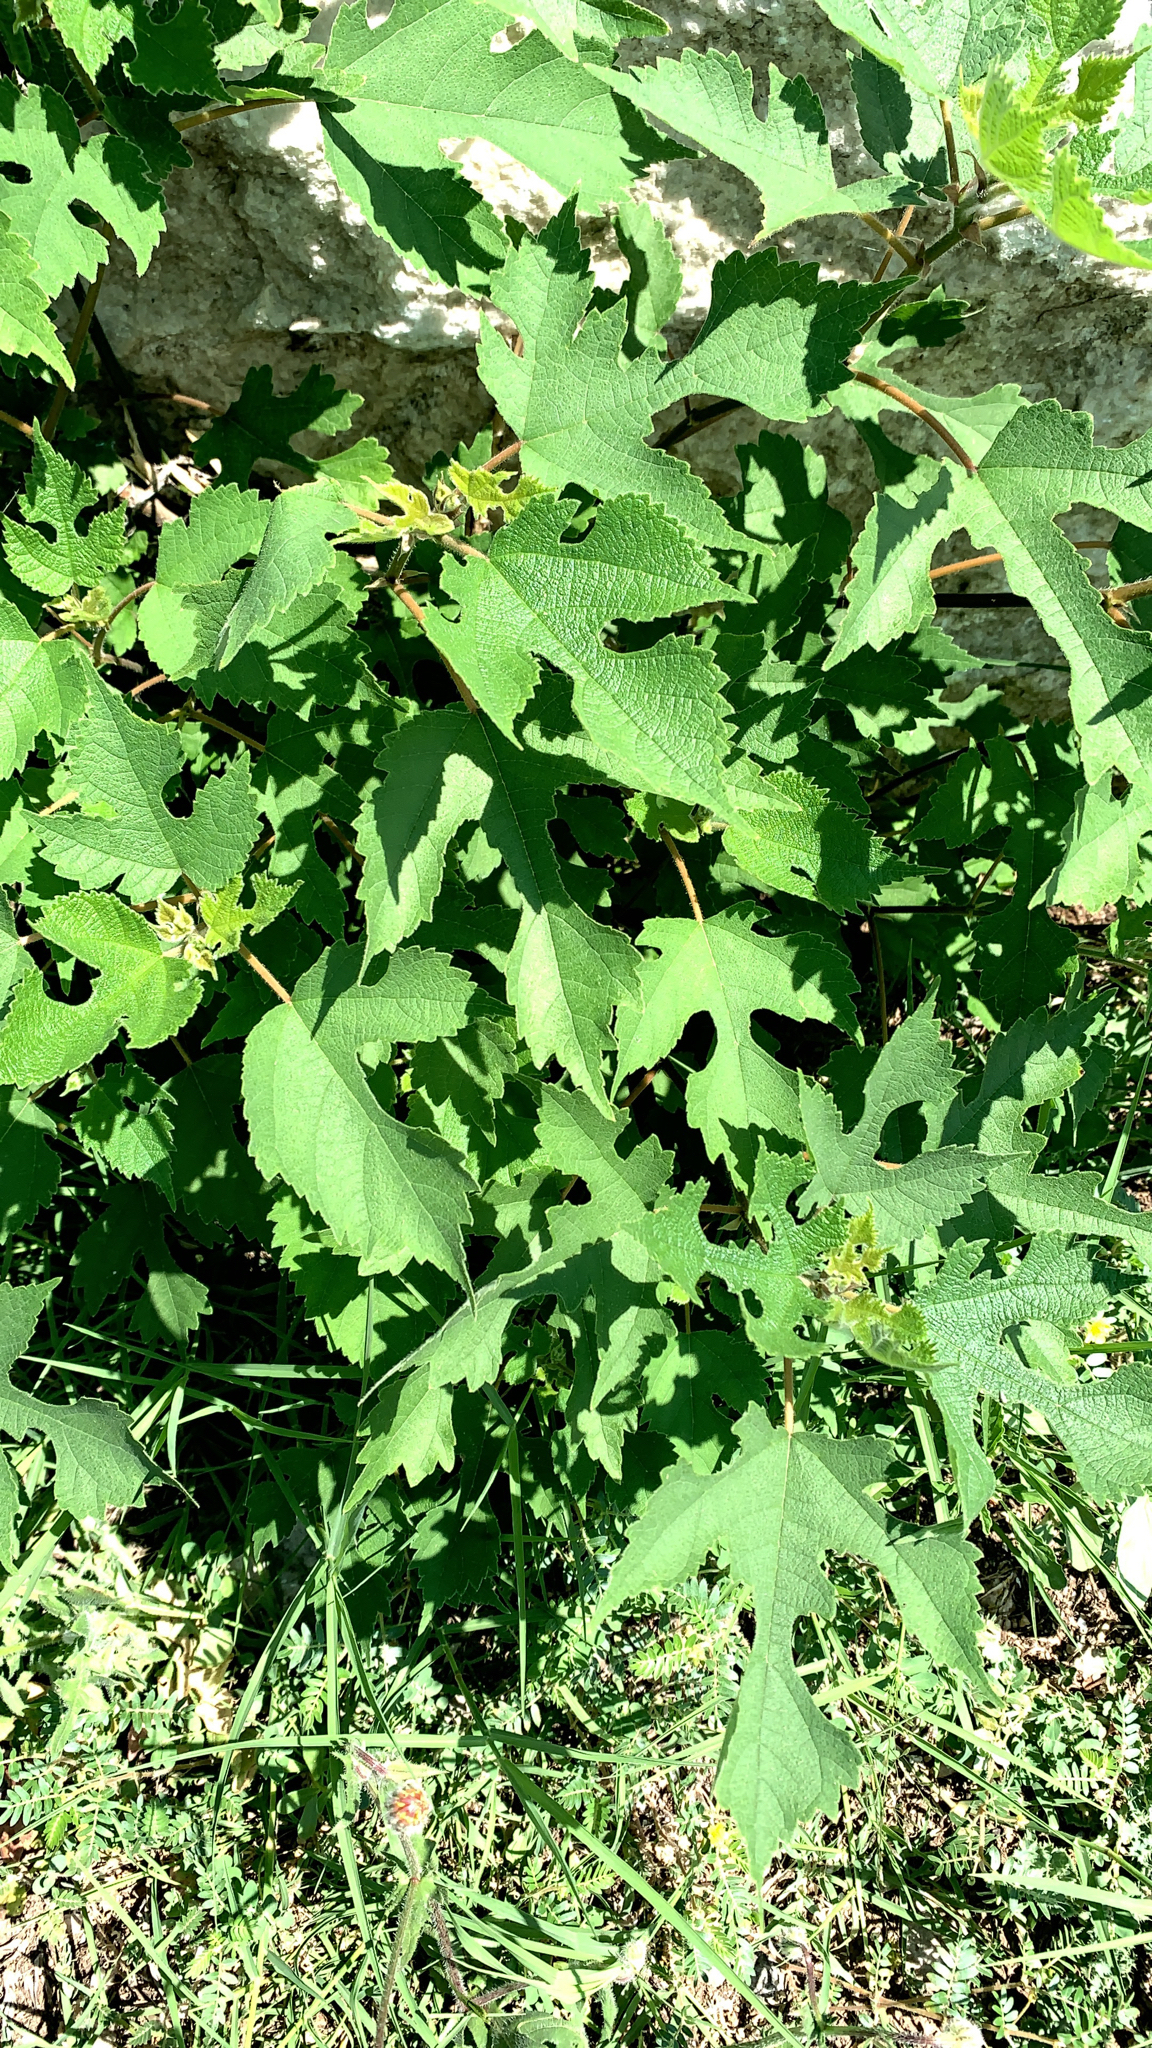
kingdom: Plantae
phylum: Tracheophyta
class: Magnoliopsida
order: Rosales
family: Moraceae
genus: Broussonetia
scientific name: Broussonetia papyrifera
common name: Paper mulberry
